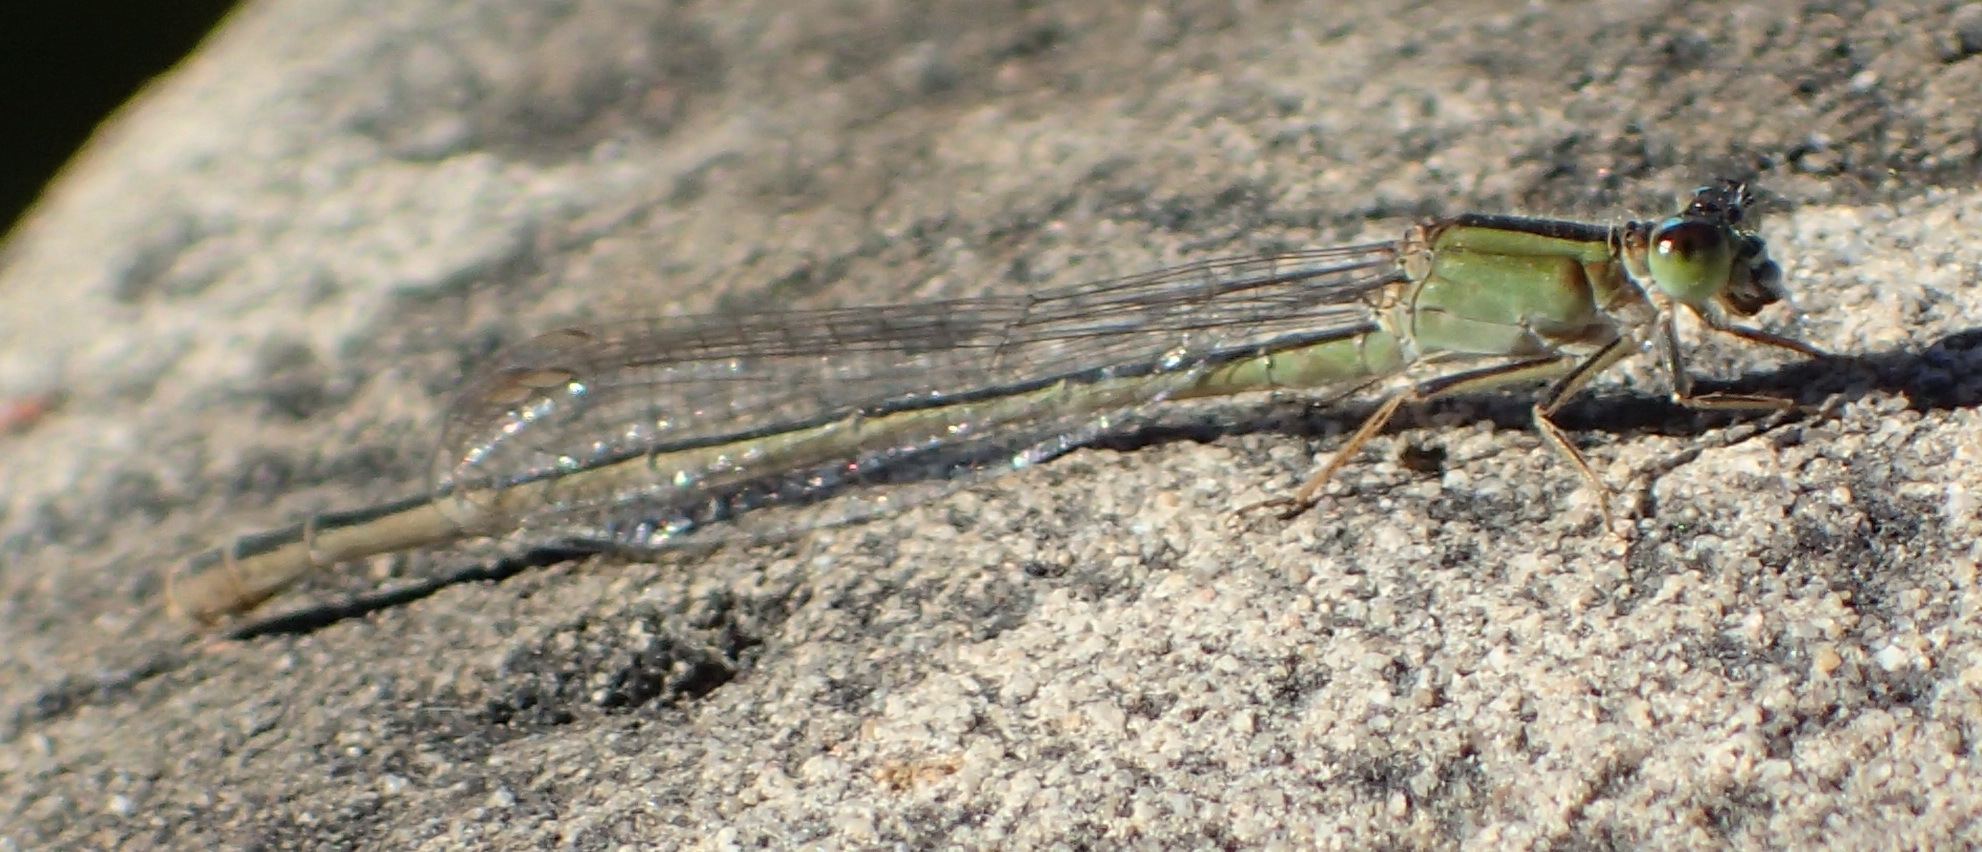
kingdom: Animalia
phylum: Arthropoda
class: Insecta
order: Odonata
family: Coenagrionidae
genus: Ischnura
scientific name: Ischnura senegalensis
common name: Tropical bluetail
